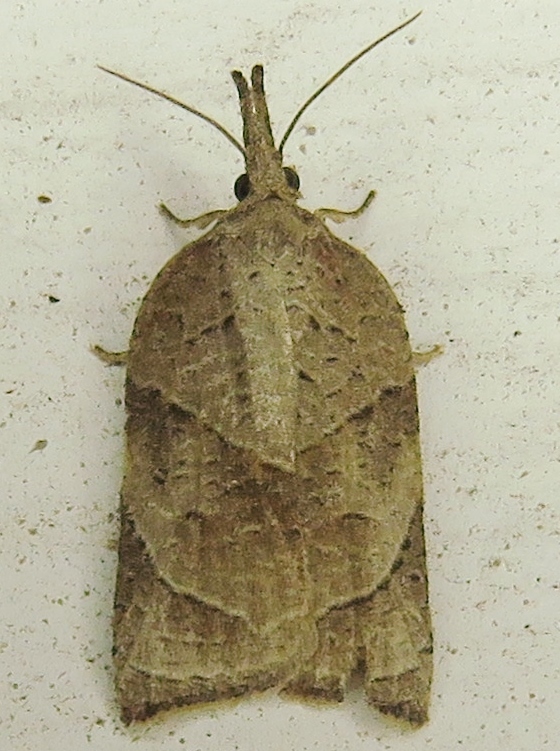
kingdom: Animalia
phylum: Arthropoda
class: Insecta
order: Lepidoptera
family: Tortricidae
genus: Platynota
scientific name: Platynota rostrana
